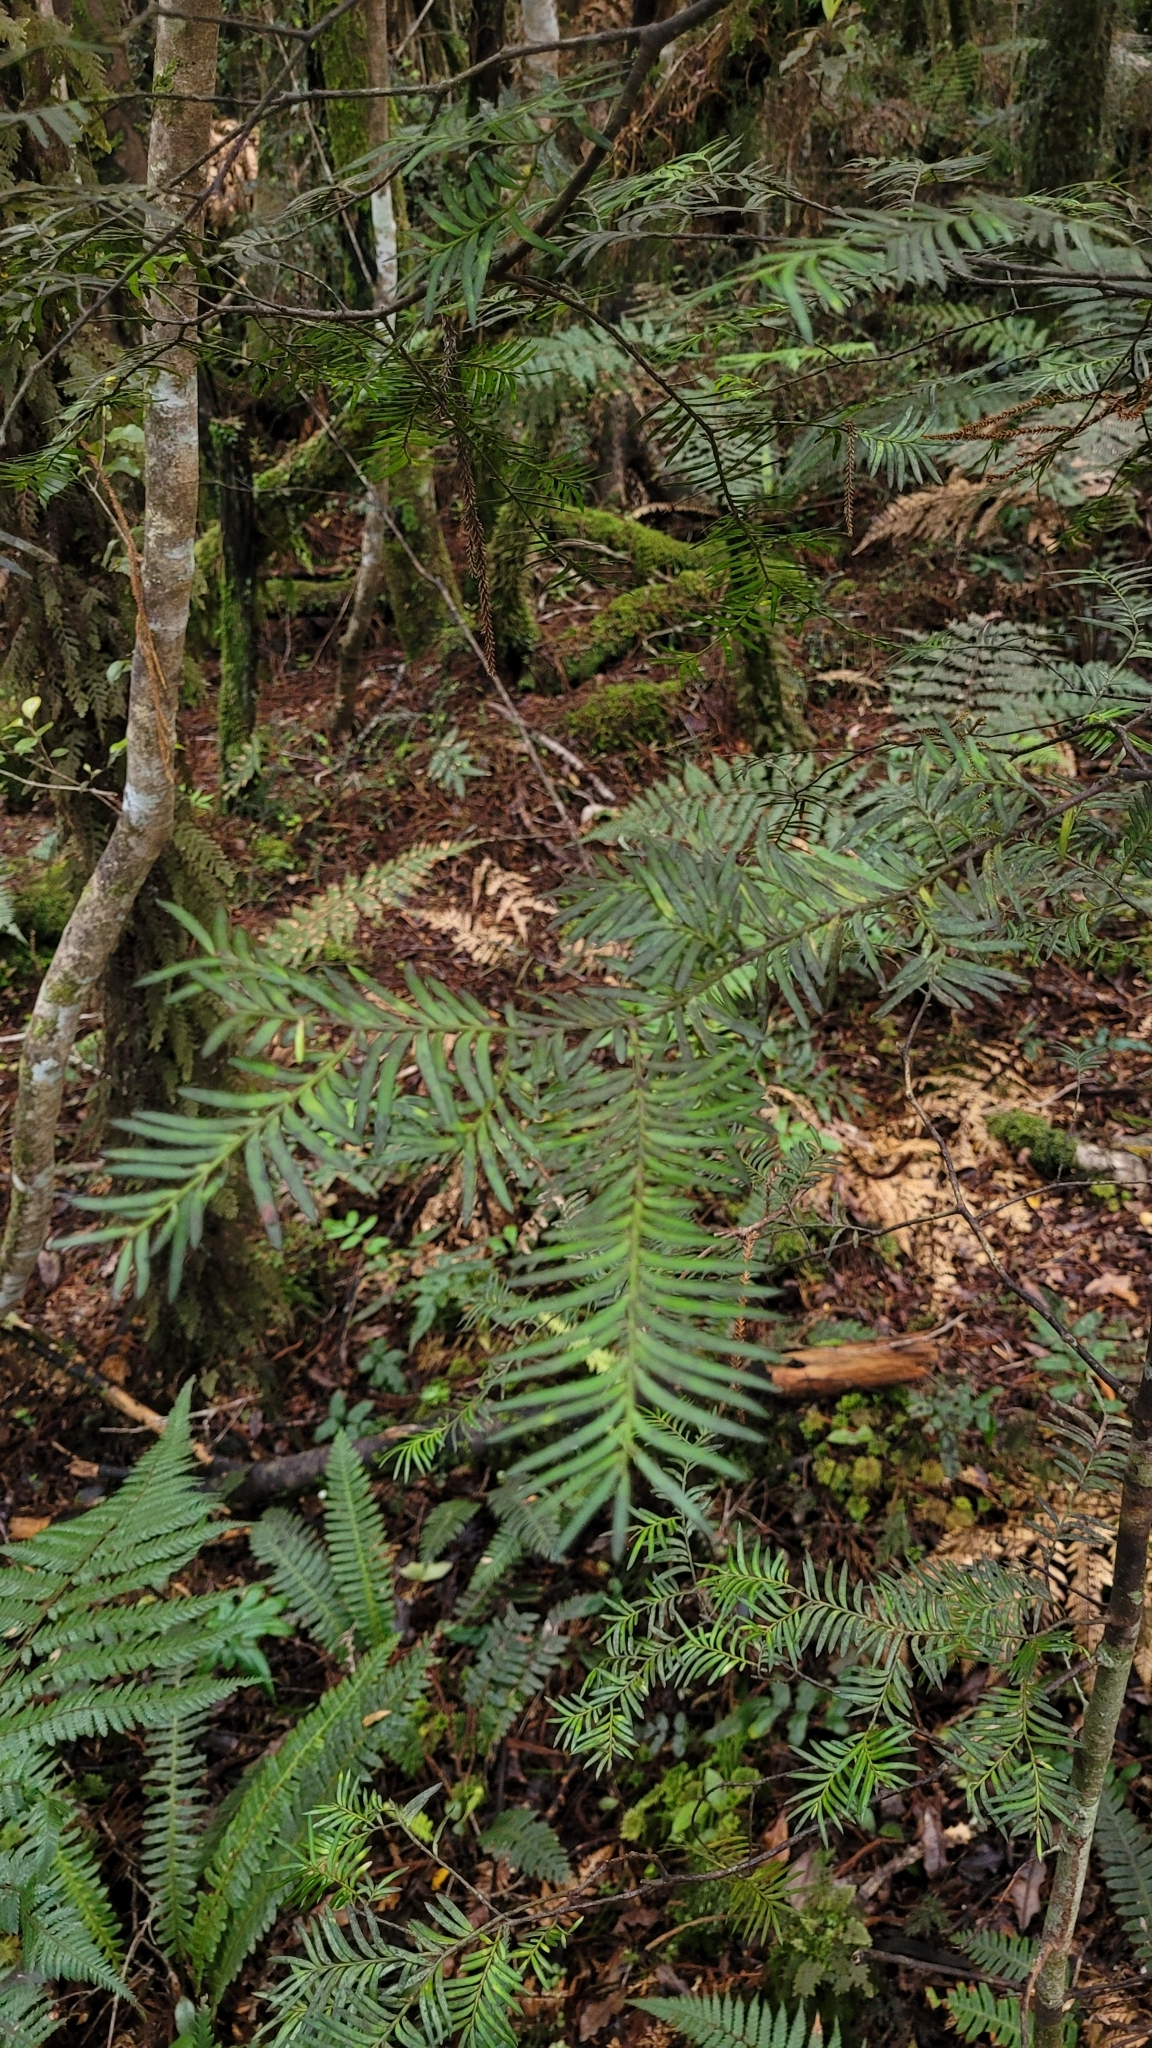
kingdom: Plantae
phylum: Tracheophyta
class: Pinopsida
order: Pinales
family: Podocarpaceae
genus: Prumnopitys
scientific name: Prumnopitys ferruginea
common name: Brown pine
